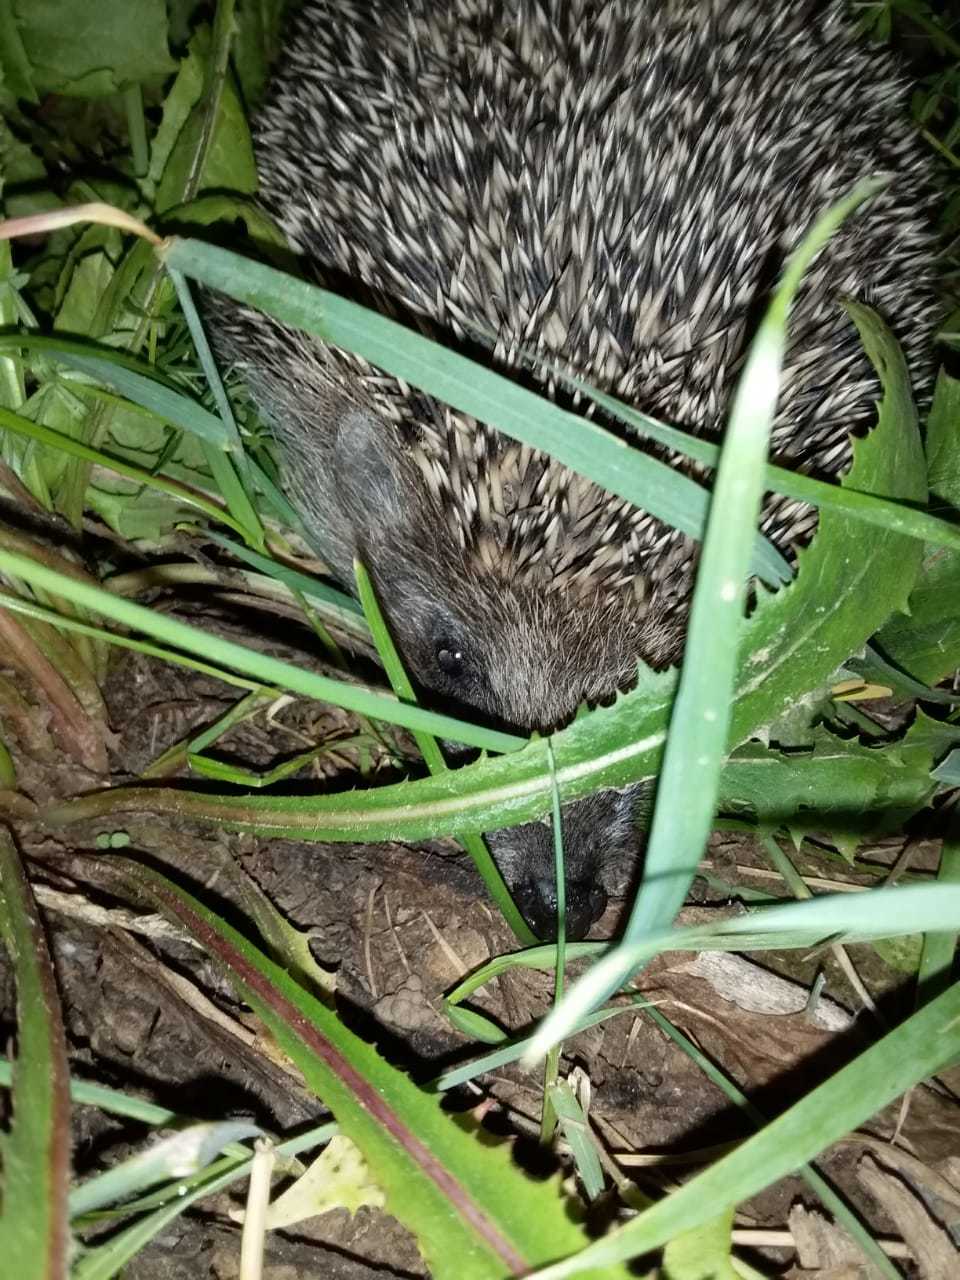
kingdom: Animalia
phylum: Chordata
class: Mammalia
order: Erinaceomorpha
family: Erinaceidae
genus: Erinaceus
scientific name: Erinaceus roumanicus
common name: Northern white-breasted hedgehog
